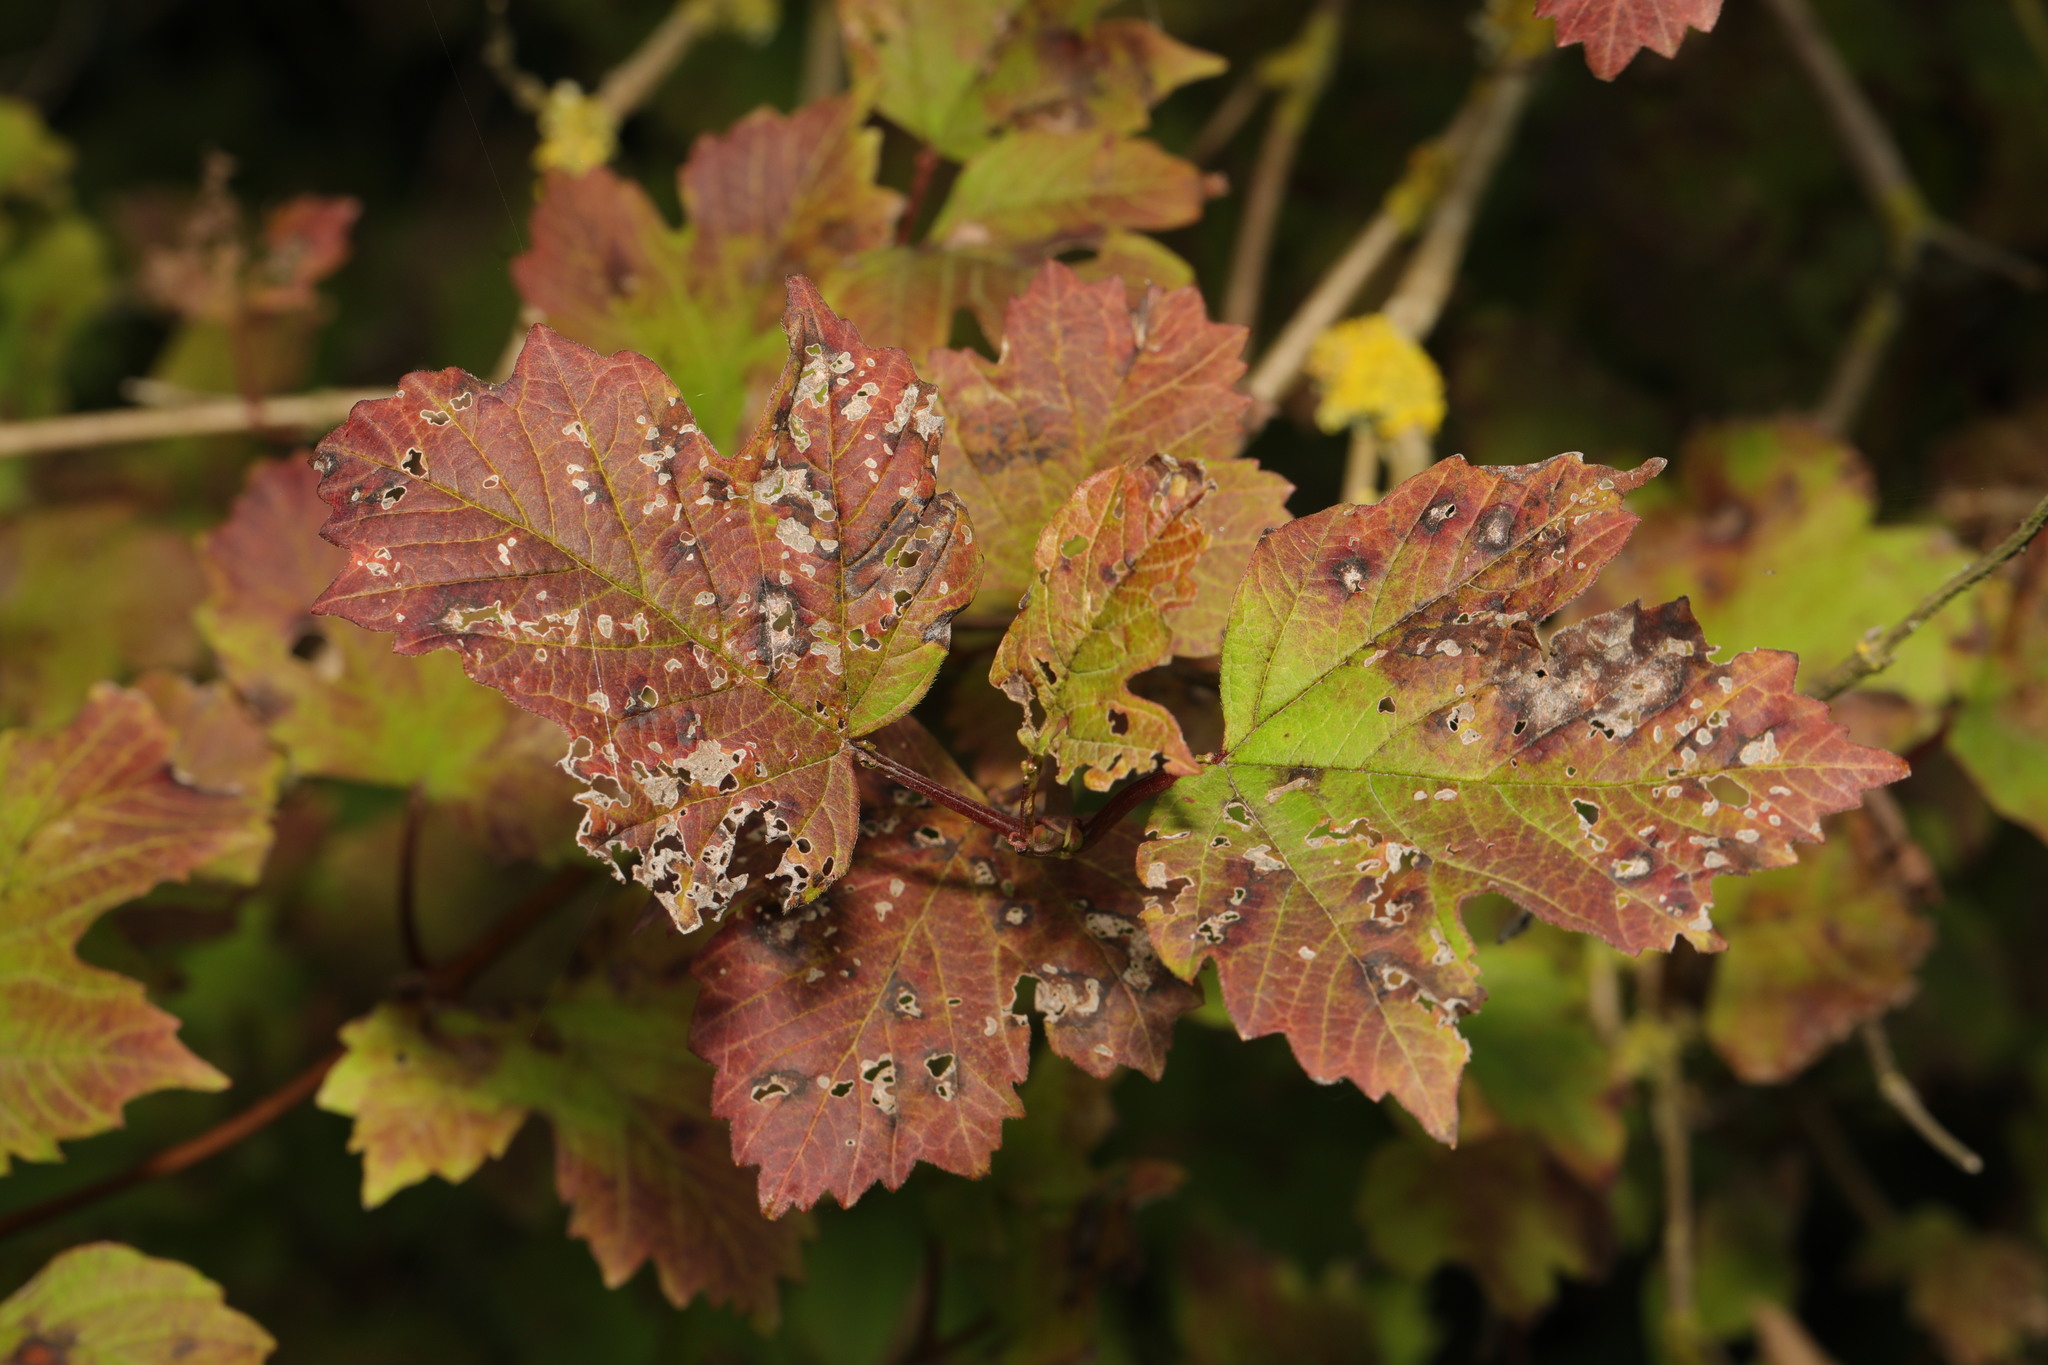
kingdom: Plantae
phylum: Tracheophyta
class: Magnoliopsida
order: Dipsacales
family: Viburnaceae
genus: Viburnum
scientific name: Viburnum opulus
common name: Guelder-rose
